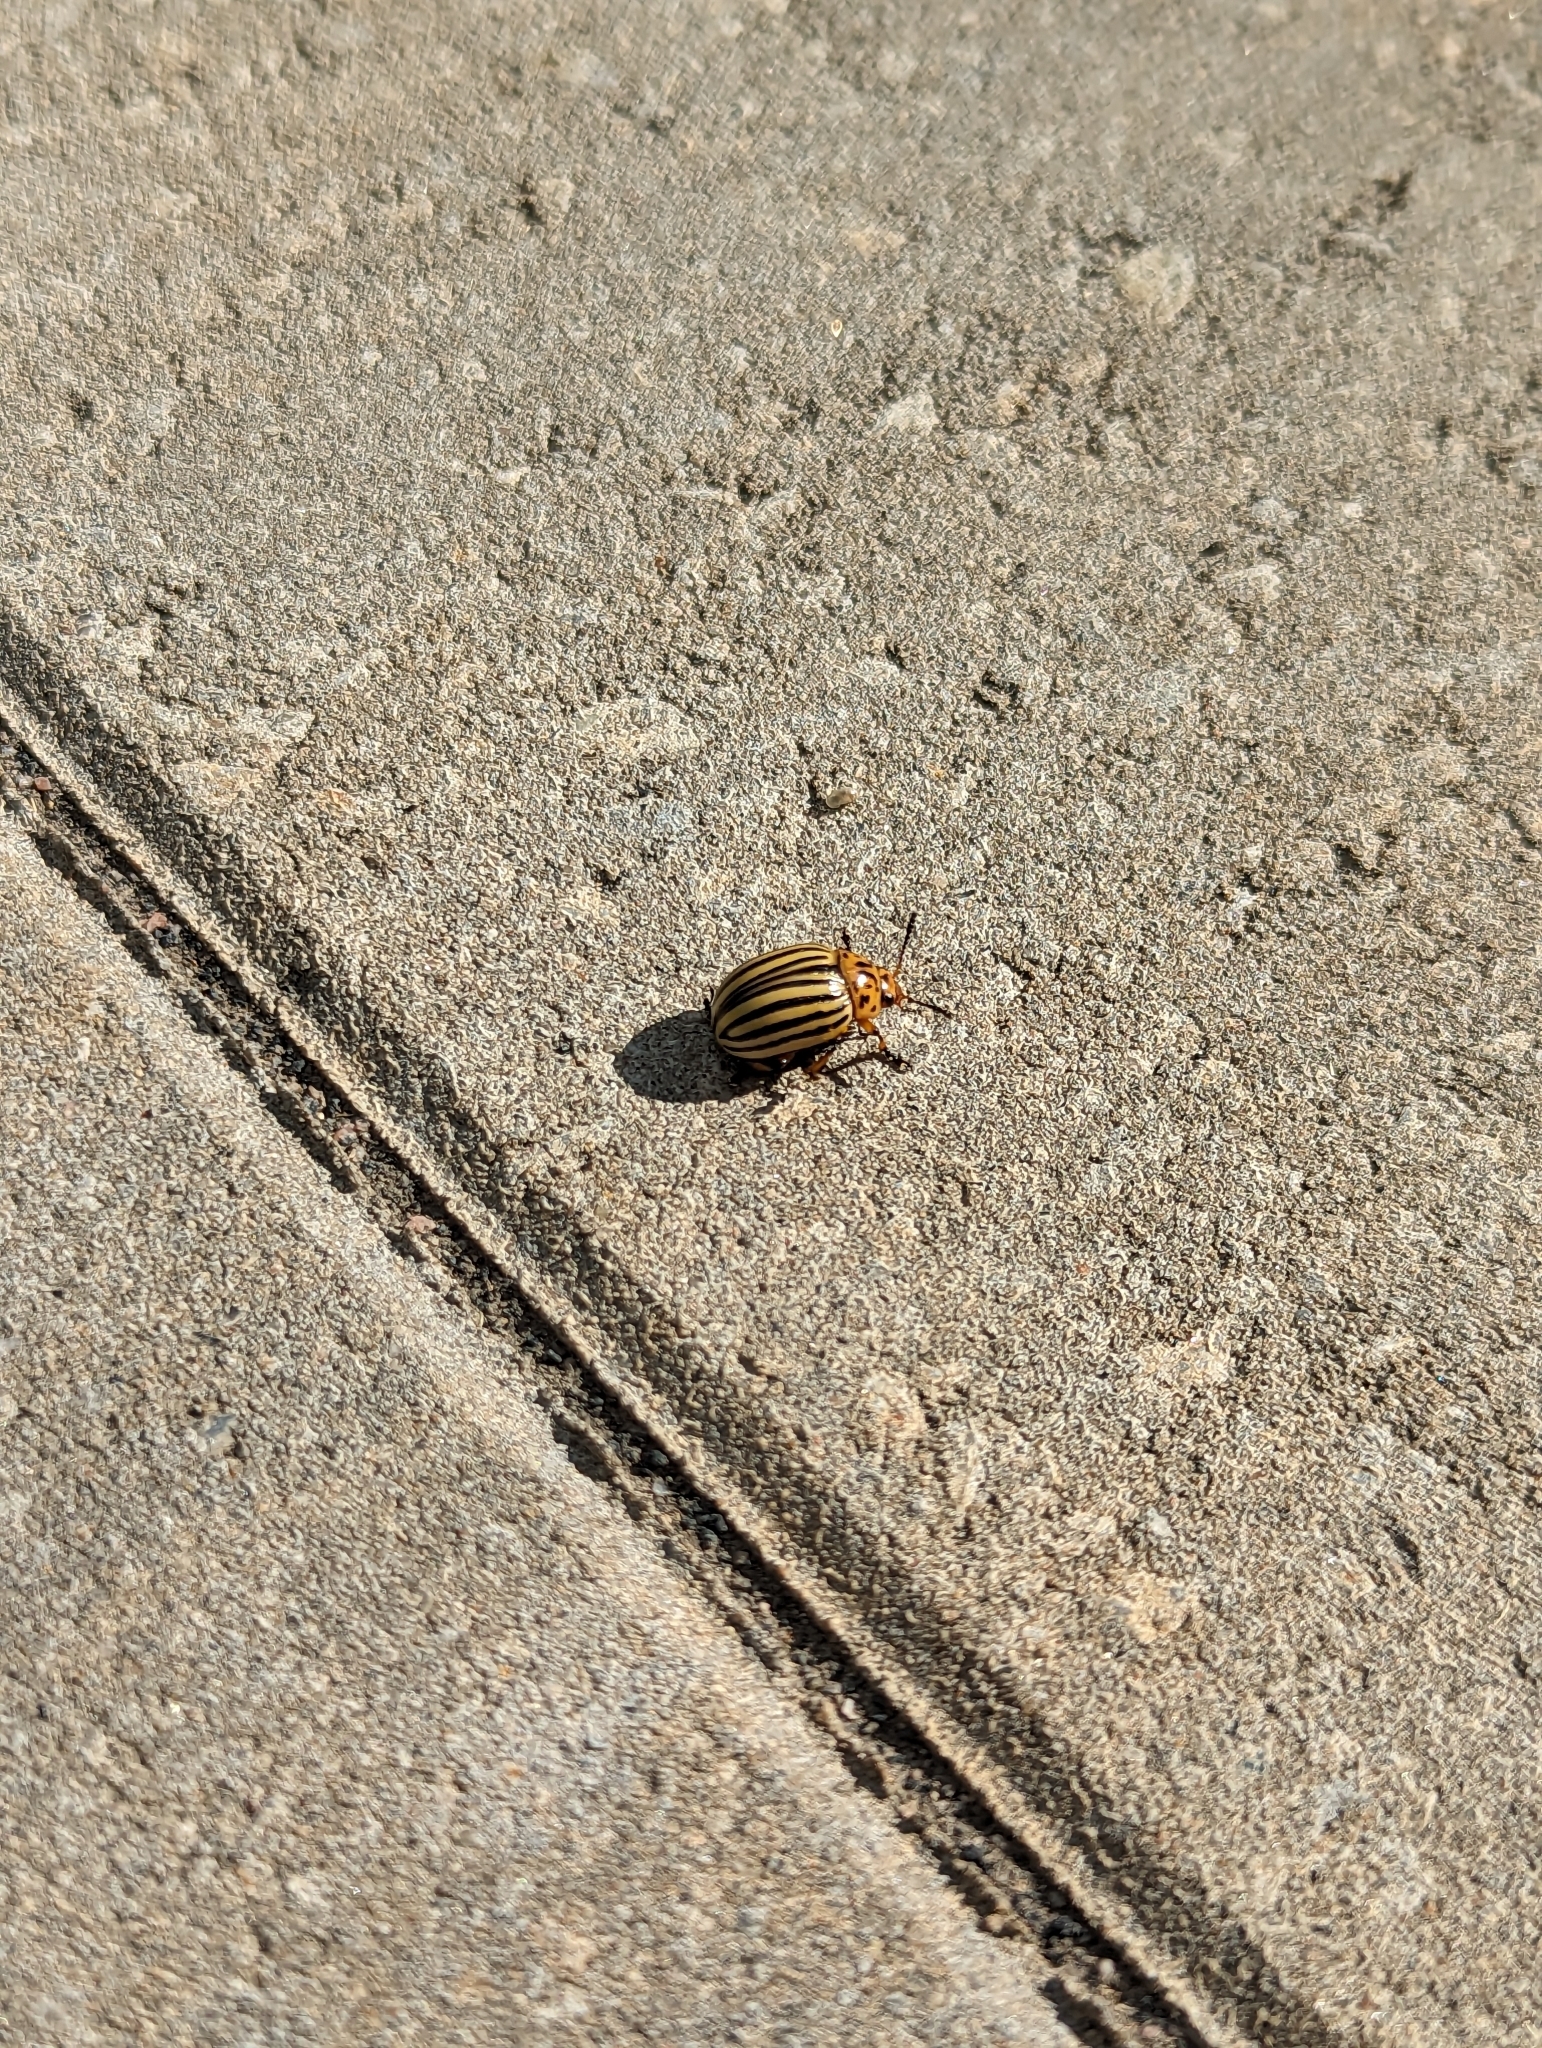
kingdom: Animalia
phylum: Arthropoda
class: Insecta
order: Coleoptera
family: Chrysomelidae
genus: Leptinotarsa
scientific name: Leptinotarsa decemlineata
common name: Colorado potato beetle
